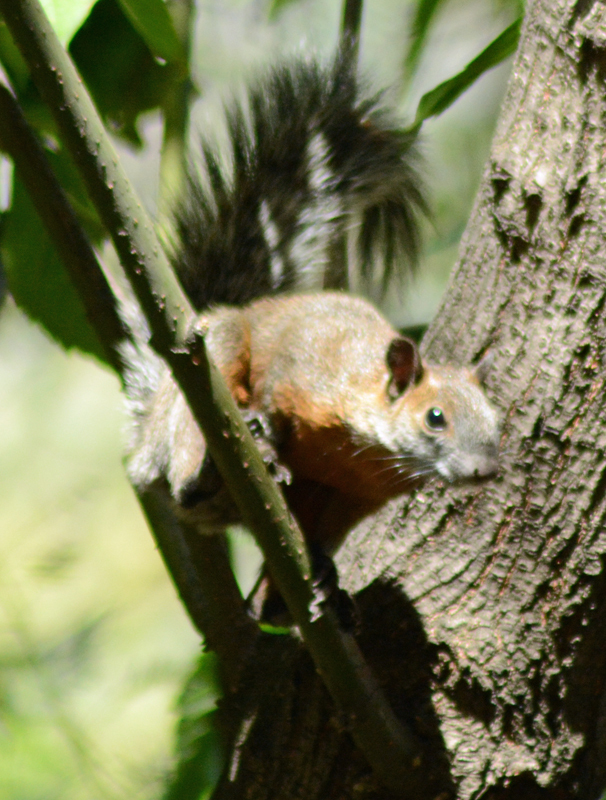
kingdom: Animalia
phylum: Chordata
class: Mammalia
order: Rodentia
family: Sciuridae
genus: Sciurus
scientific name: Sciurus aureogaster
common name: Red-bellied squirrel
